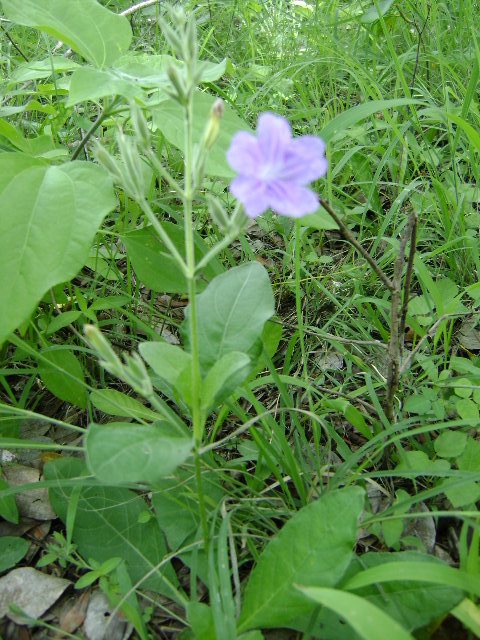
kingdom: Plantae
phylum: Tracheophyta
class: Magnoliopsida
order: Lamiales
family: Acanthaceae
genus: Ruellia
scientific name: Ruellia ciliatiflora
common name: Hairyflower wild petunia
